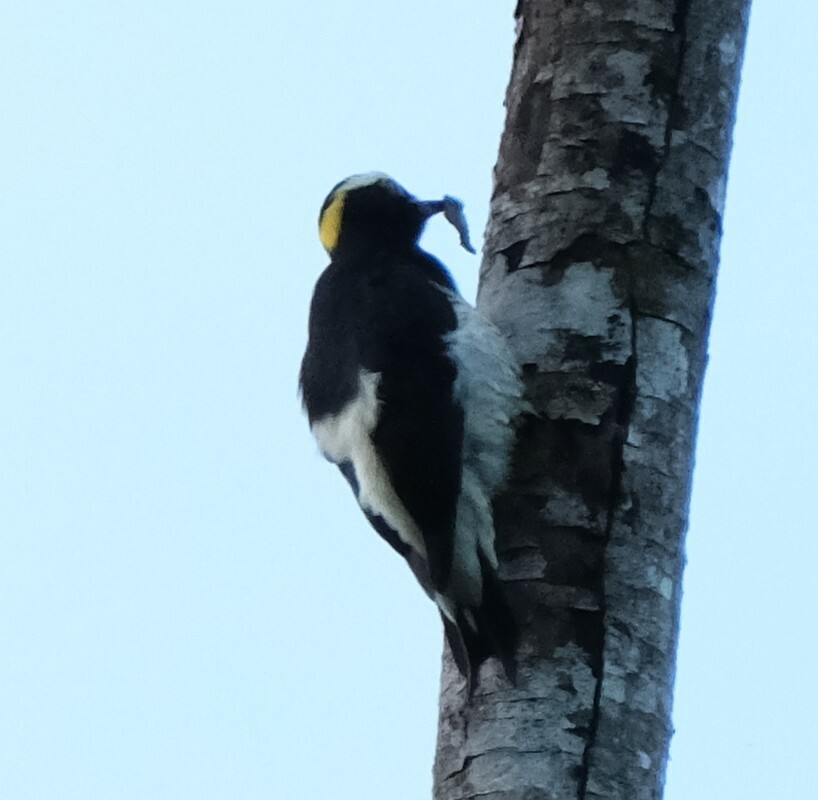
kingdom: Animalia
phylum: Chordata
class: Aves
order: Piciformes
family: Picidae
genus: Melanerpes
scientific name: Melanerpes cruentatus
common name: Yellow-tufted woodpecker
